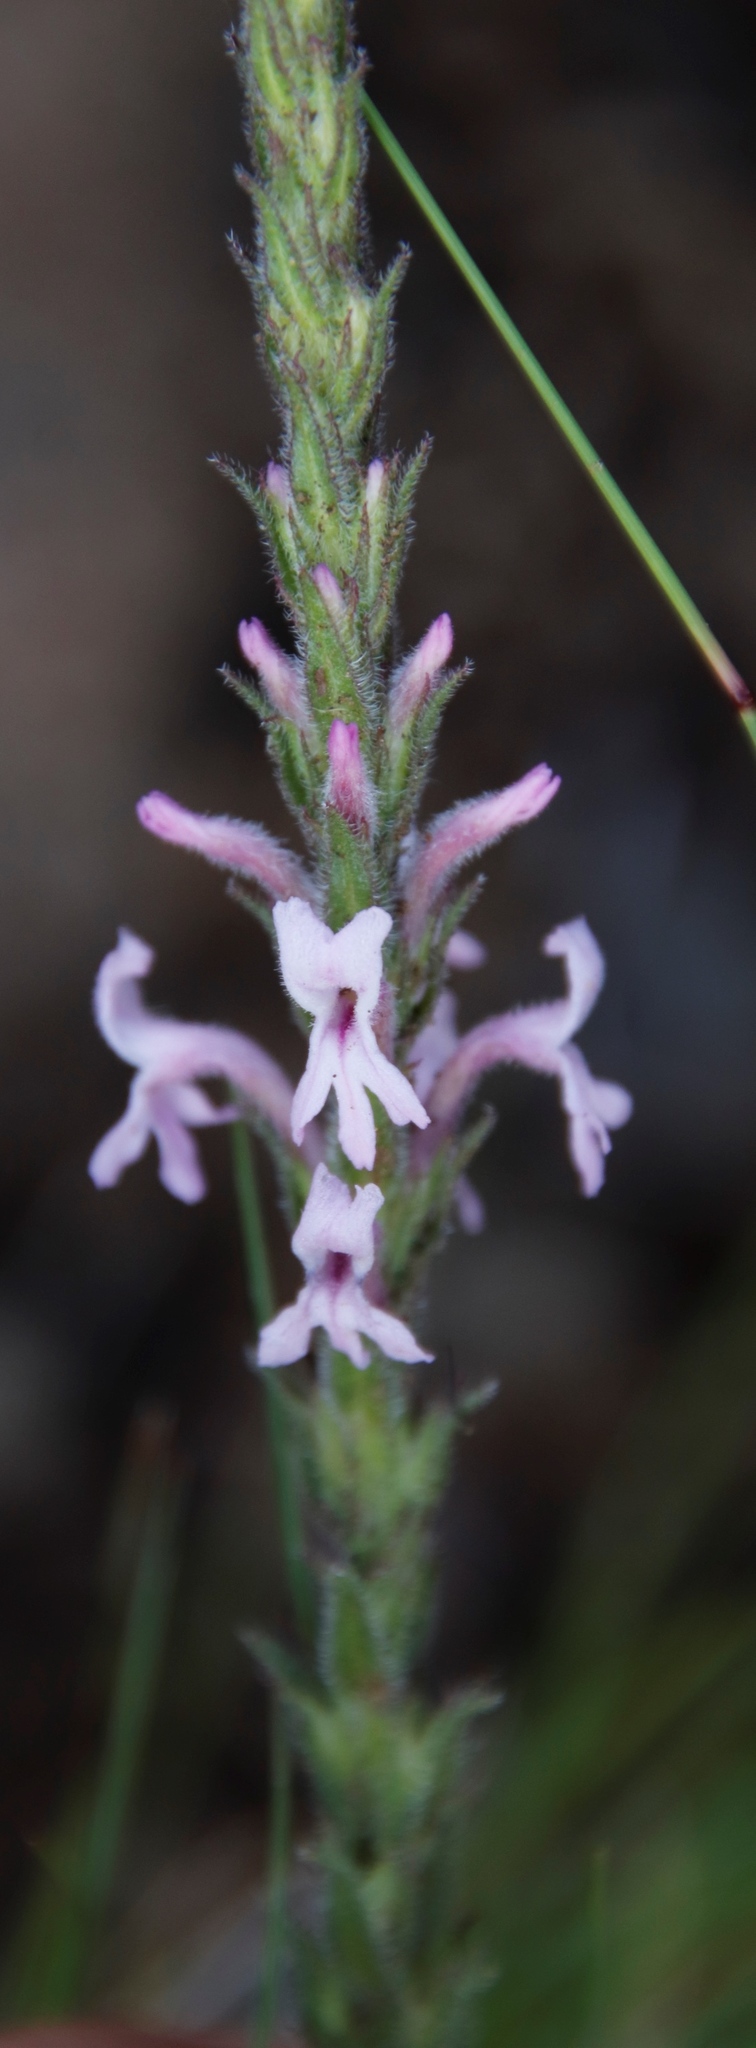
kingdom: Plantae
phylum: Tracheophyta
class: Magnoliopsida
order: Lamiales
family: Orobanchaceae
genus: Striga
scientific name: Striga bilabiata
